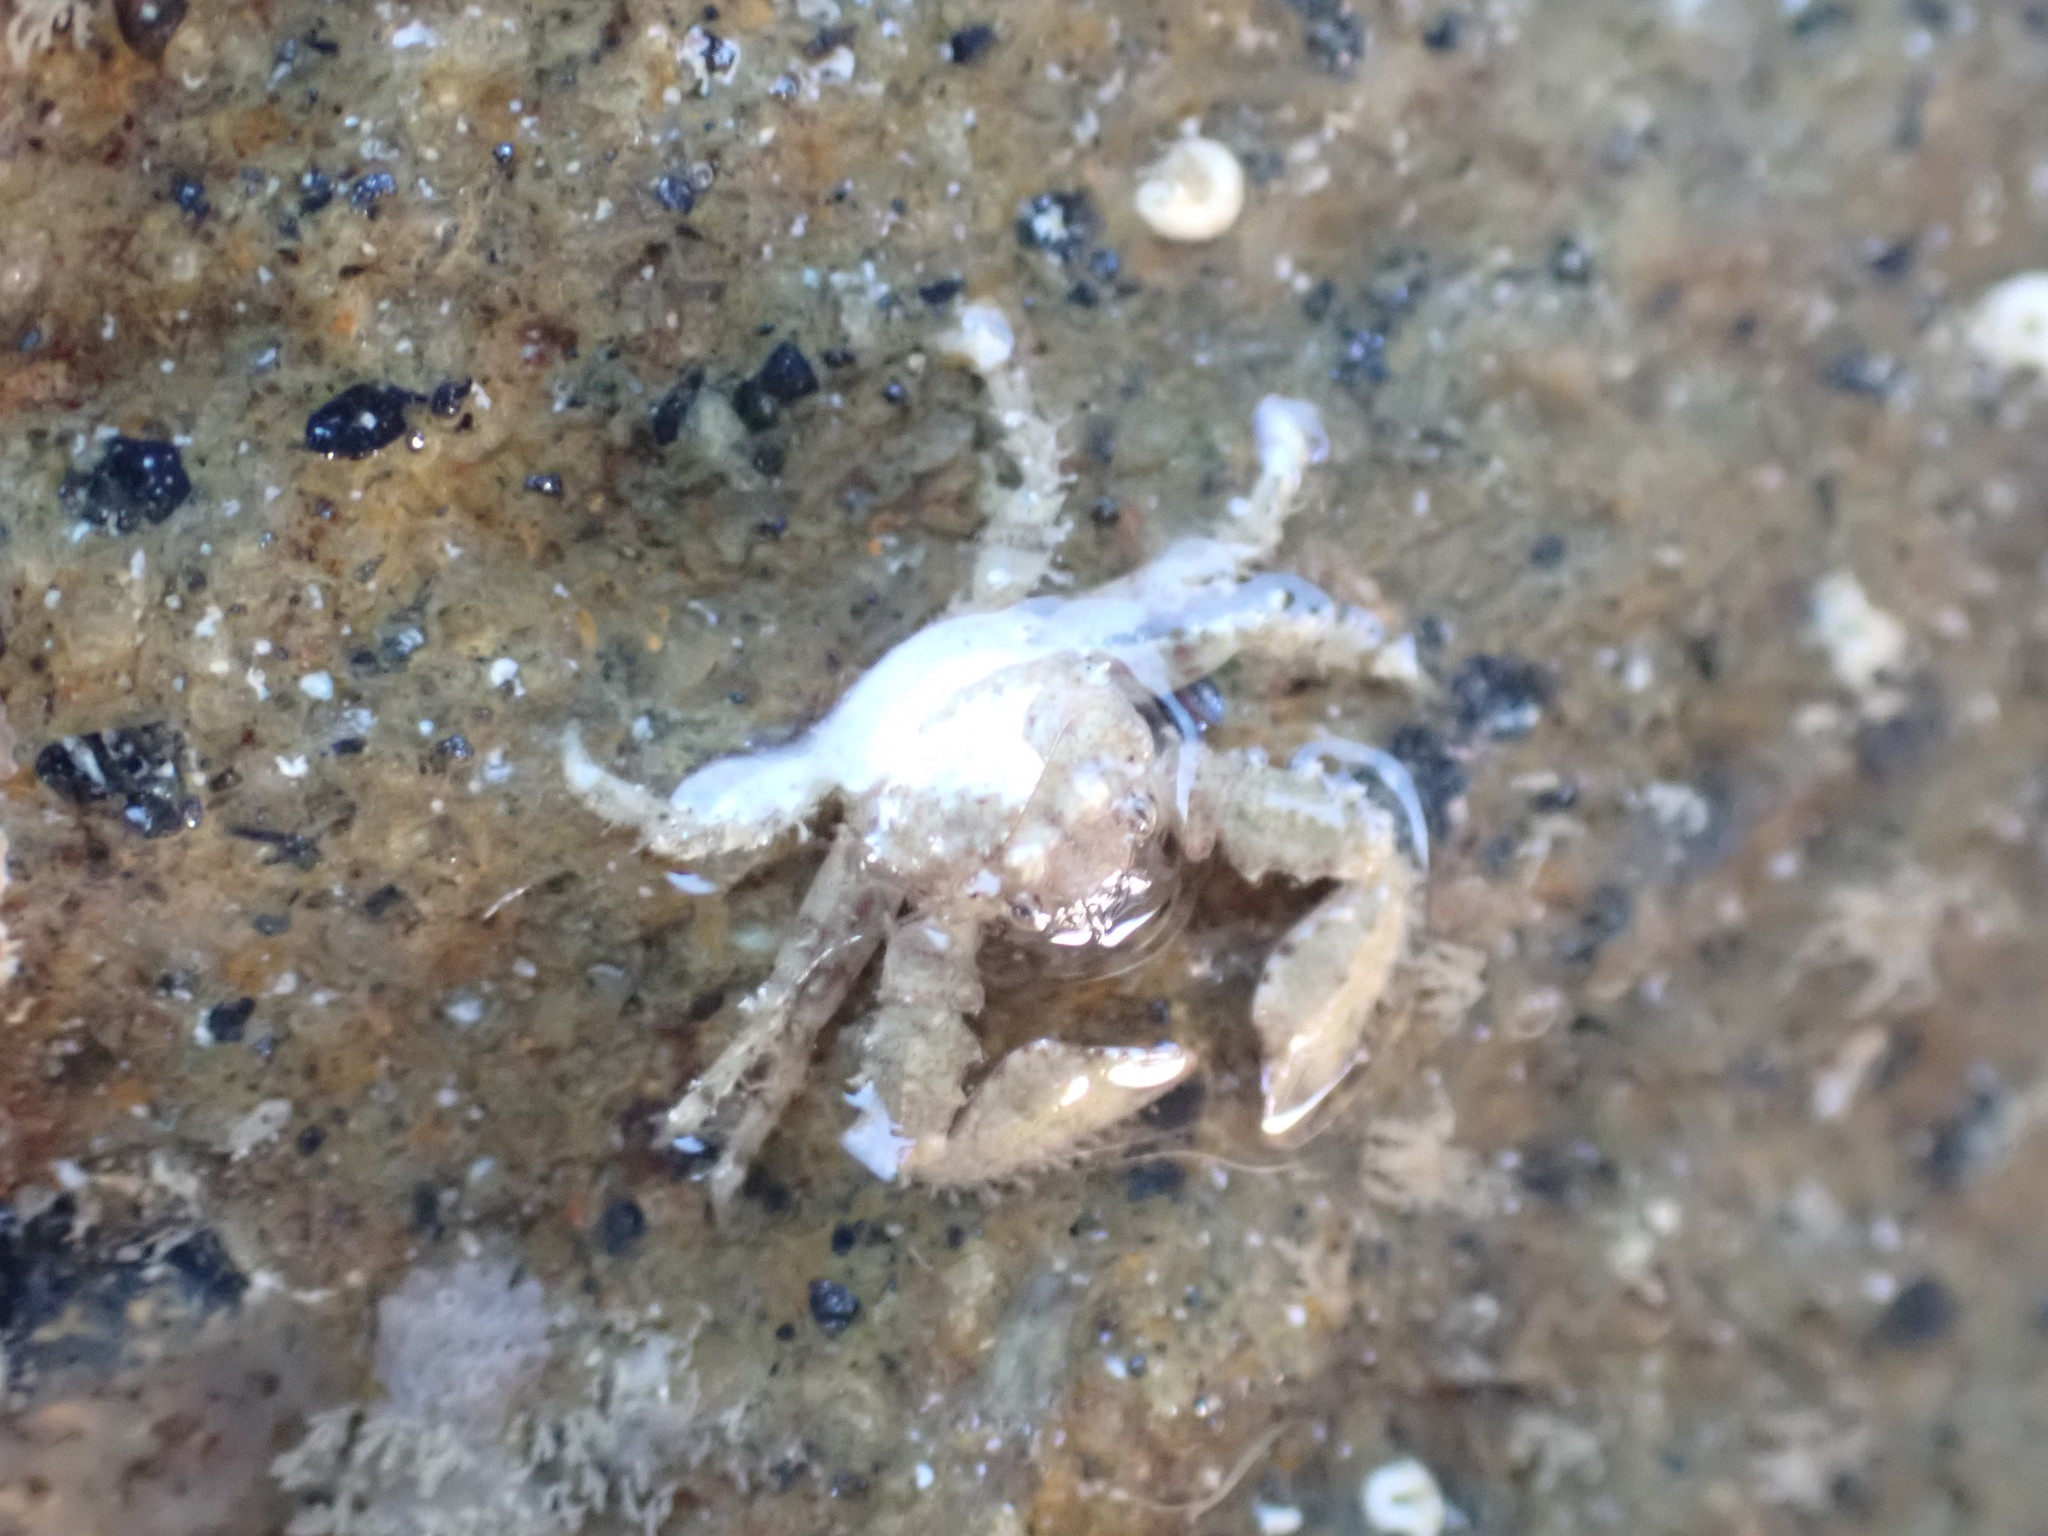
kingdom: Animalia
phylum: Arthropoda
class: Malacostraca
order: Decapoda
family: Porcellanidae
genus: Petrolisthes
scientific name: Petrolisthes novaezelandiae
